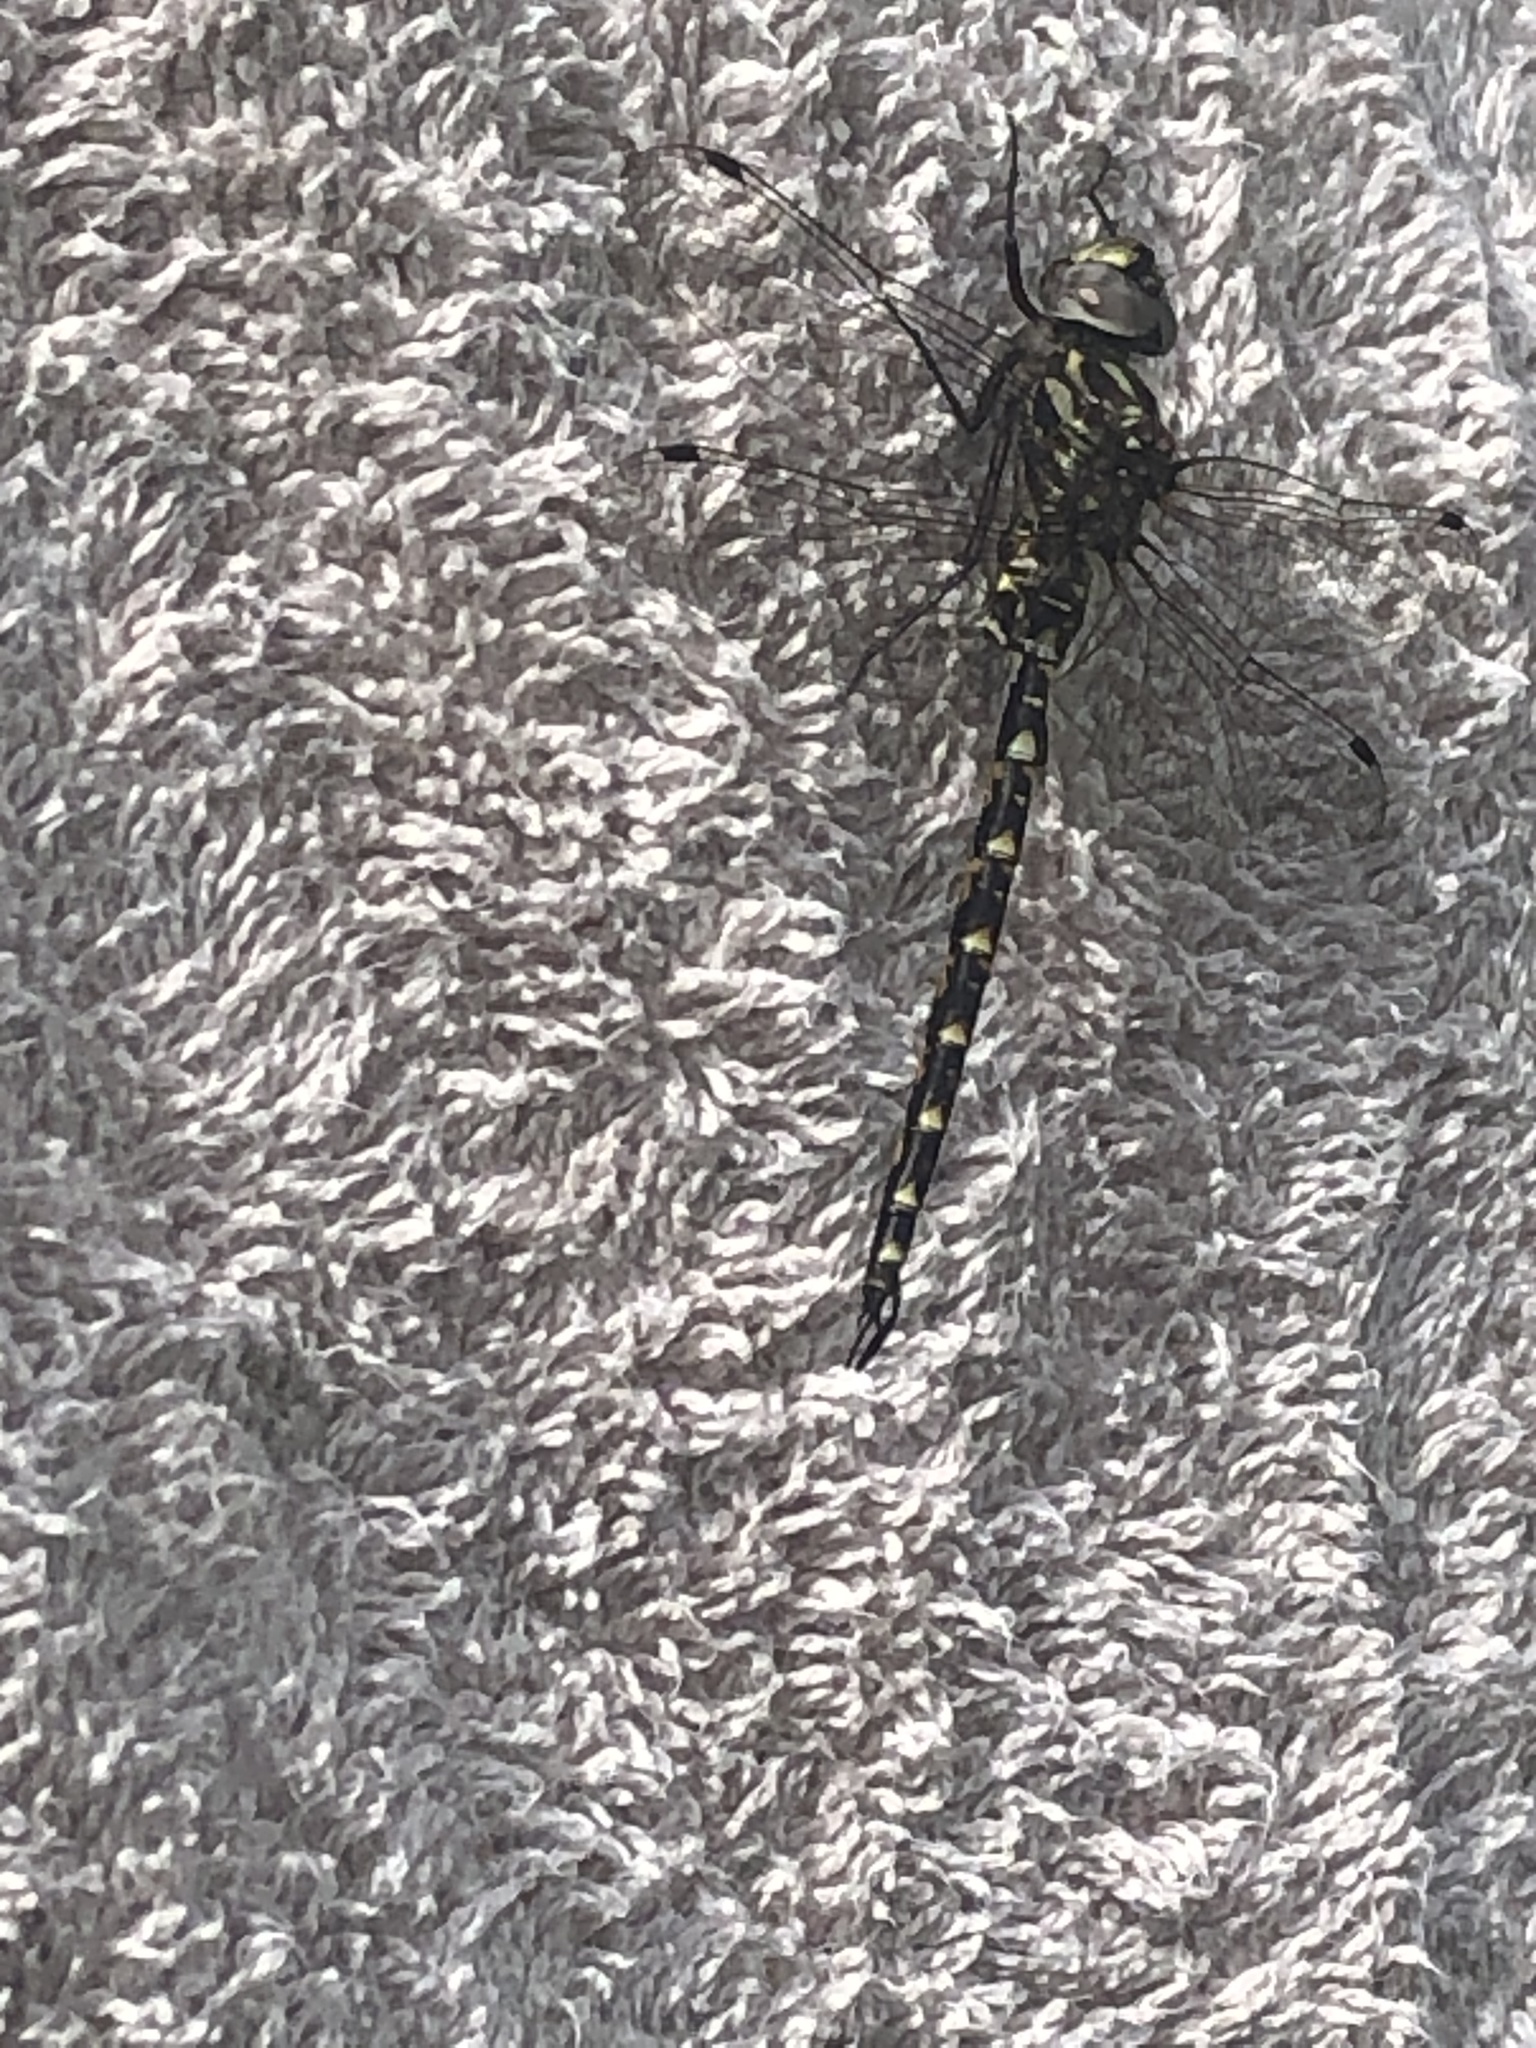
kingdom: Animalia
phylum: Arthropoda
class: Insecta
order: Odonata
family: Aeshnidae
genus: Gomphaeschna
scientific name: Gomphaeschna furcillata
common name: Harlequin darner
